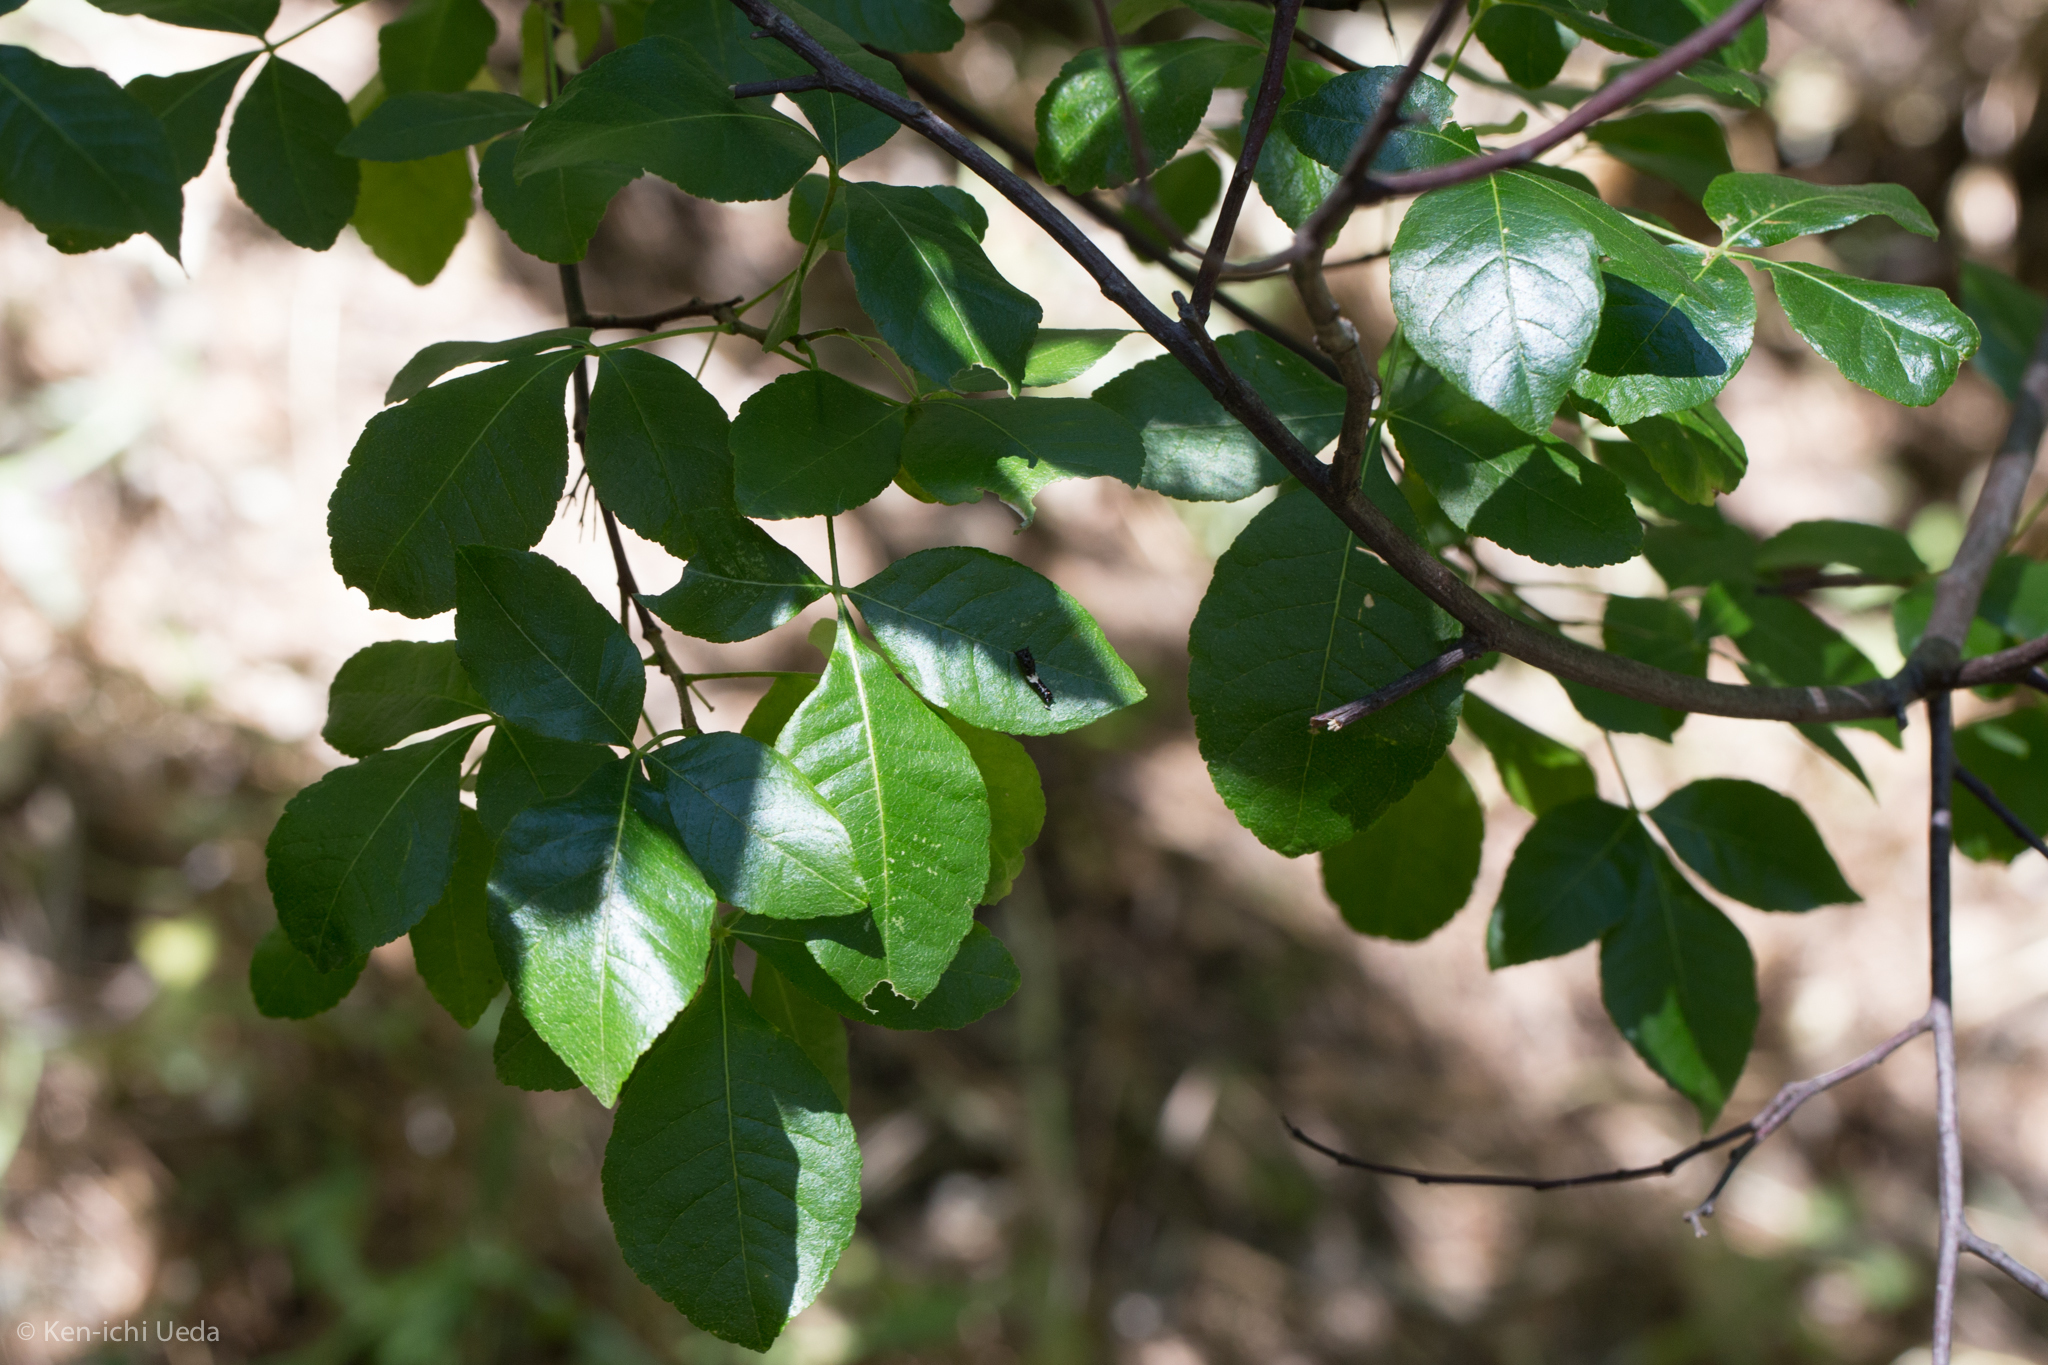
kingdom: Animalia
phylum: Arthropoda
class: Insecta
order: Lepidoptera
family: Papilionidae
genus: Papilio
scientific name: Papilio multicaudata
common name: Two-tailed tiger swallowtail
